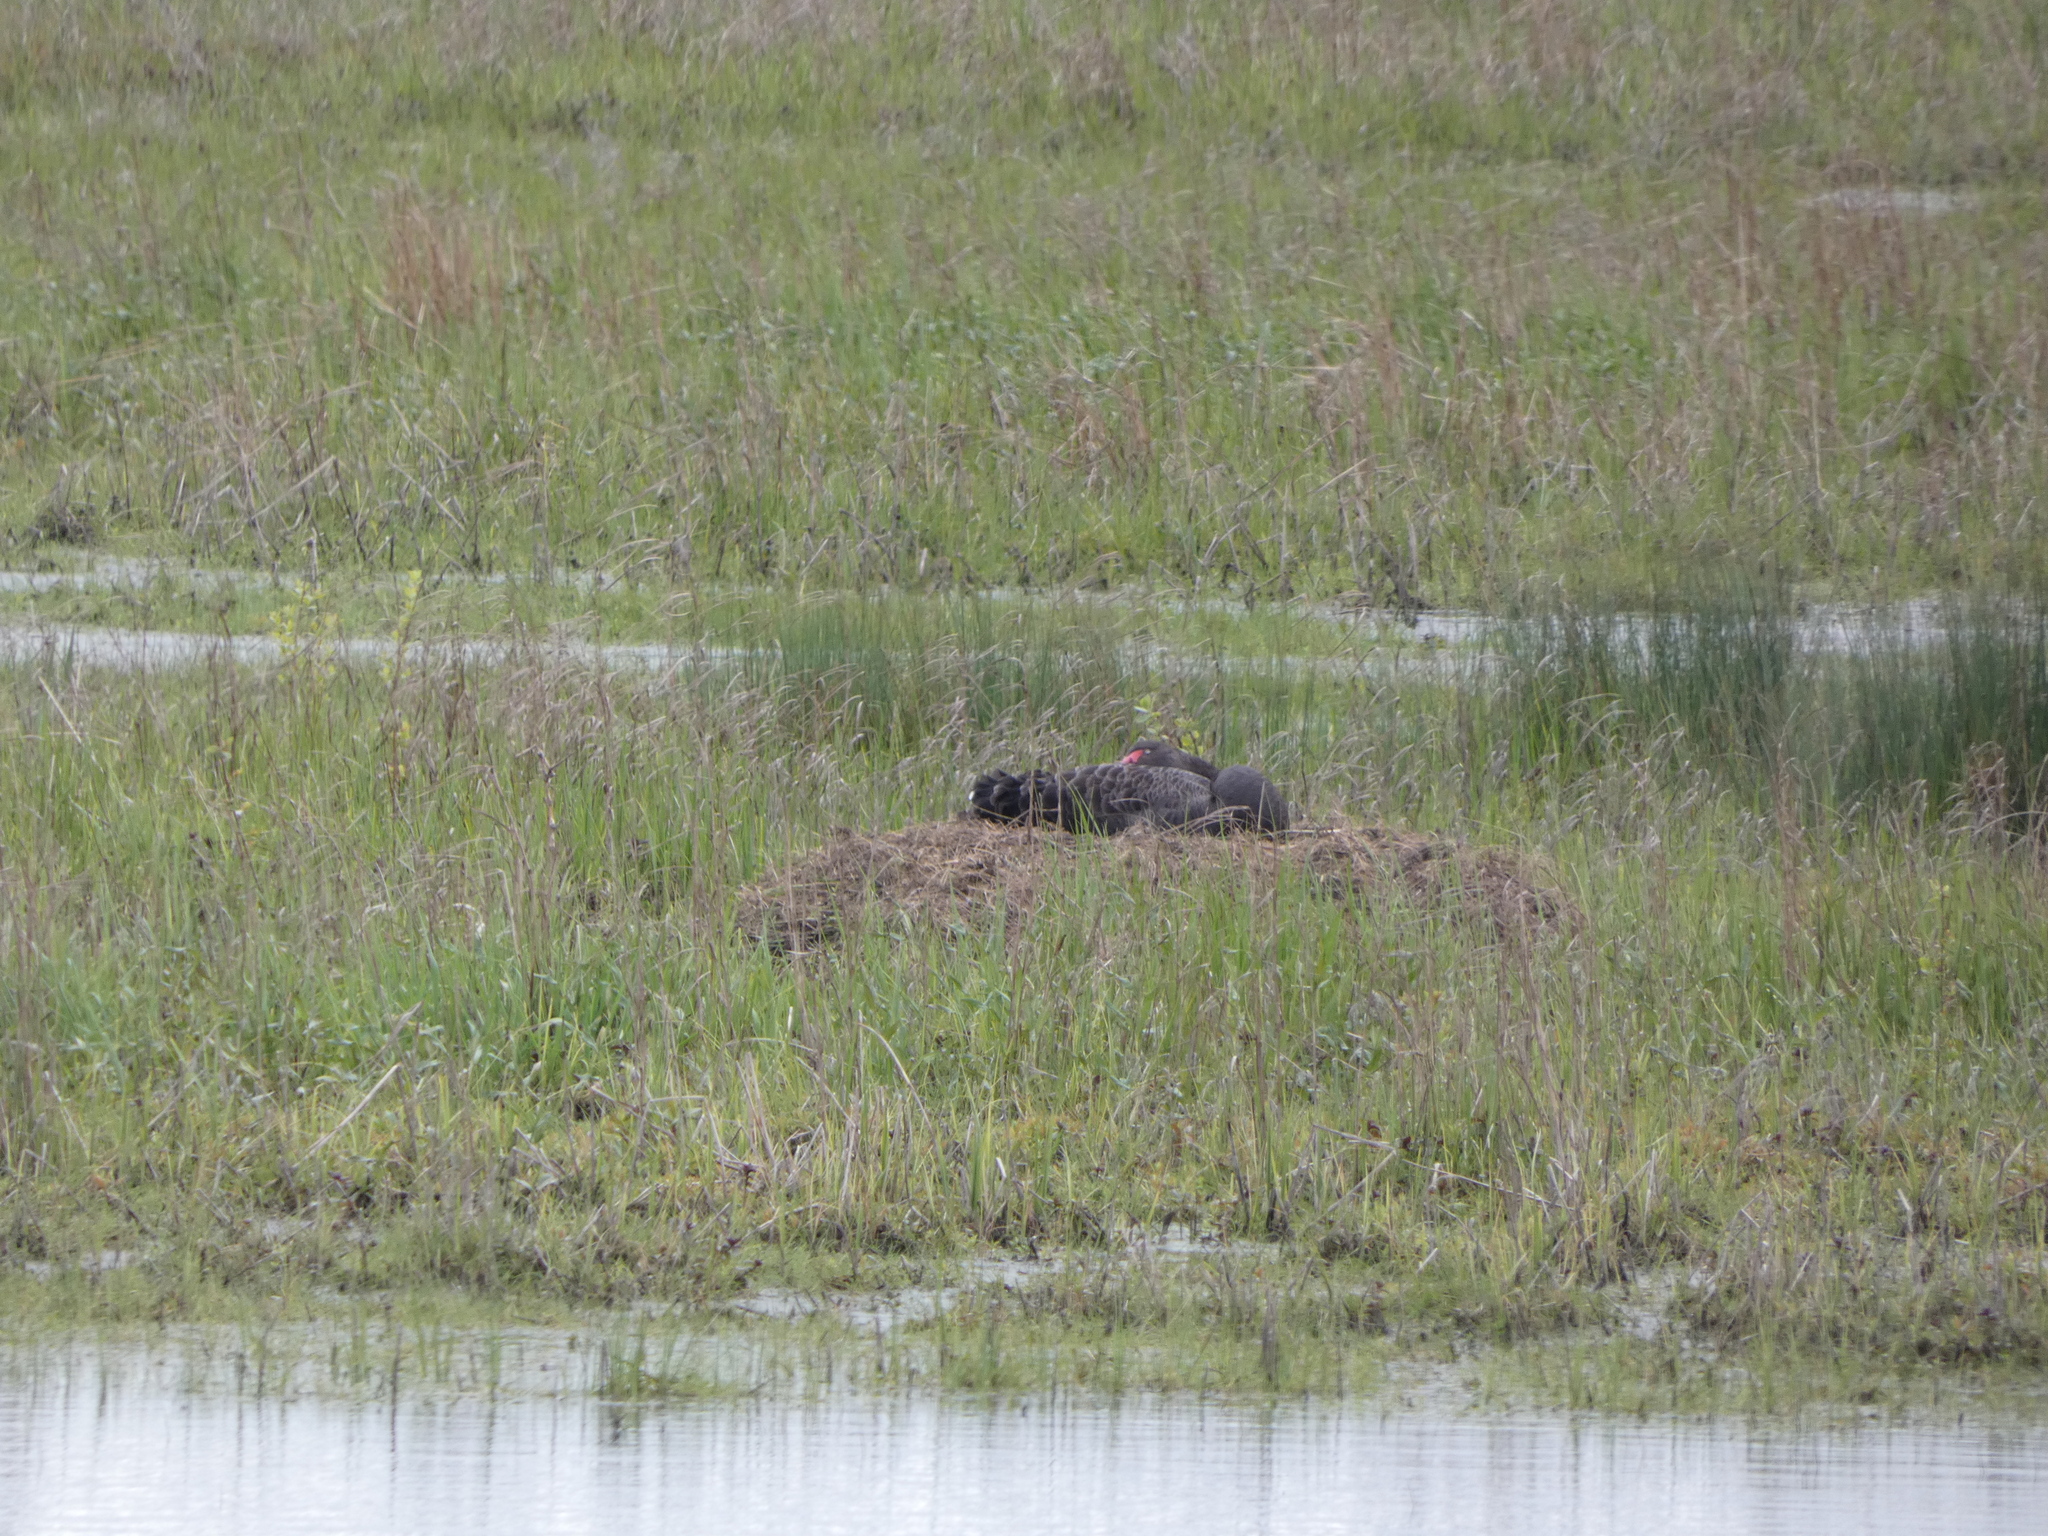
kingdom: Animalia
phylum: Chordata
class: Aves
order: Anseriformes
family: Anatidae
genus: Cygnus
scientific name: Cygnus atratus
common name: Black swan
